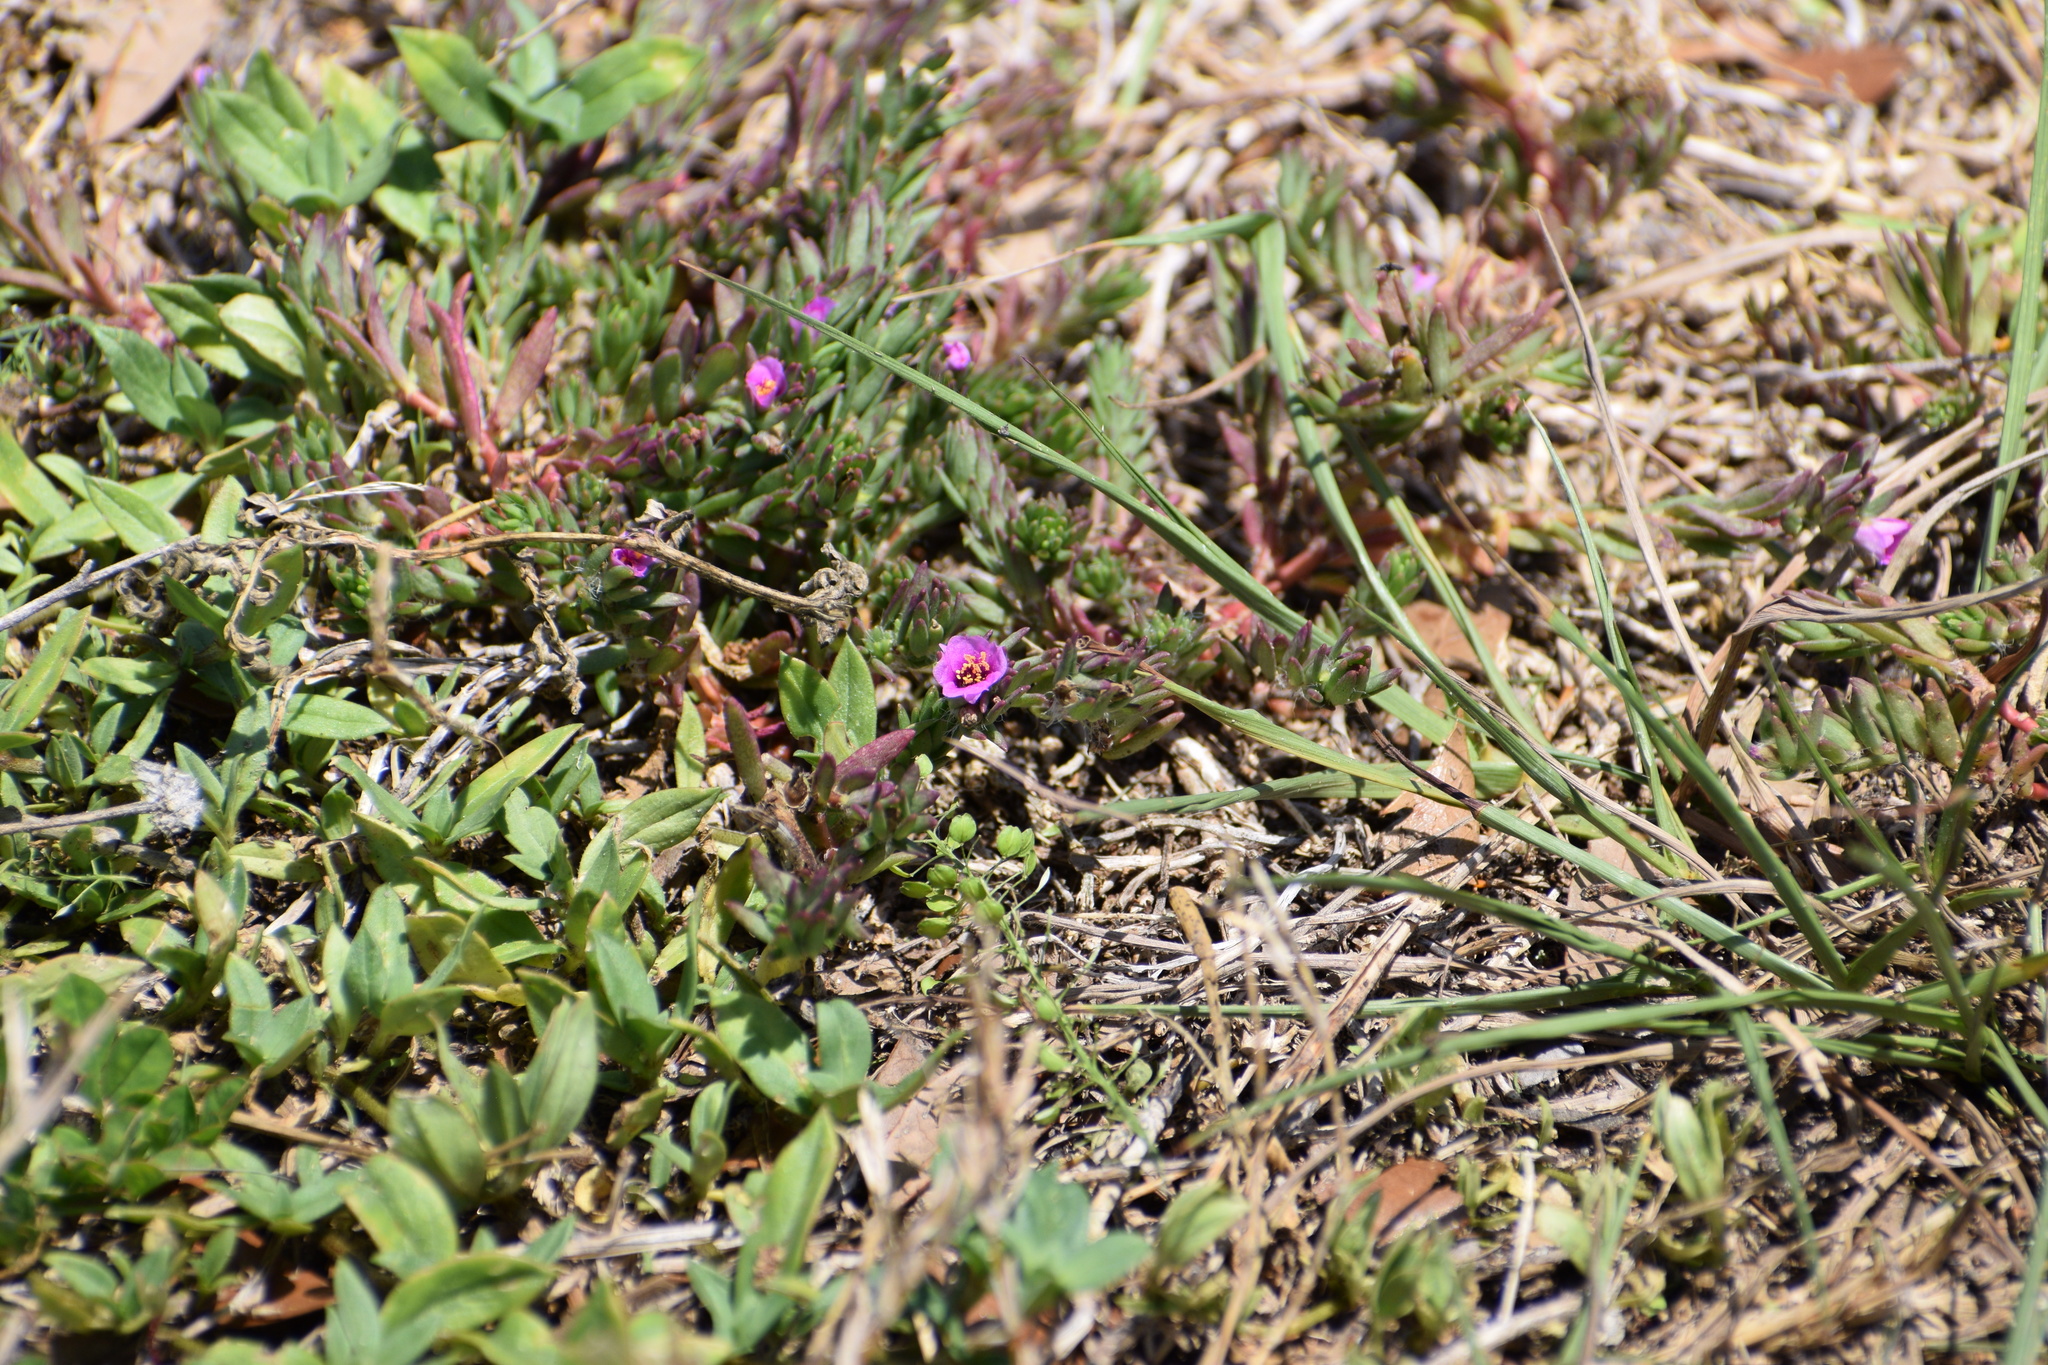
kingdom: Plantae
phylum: Tracheophyta
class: Magnoliopsida
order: Caryophyllales
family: Portulacaceae
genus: Portulaca
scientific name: Portulaca pilosa
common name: Kiss me quick
